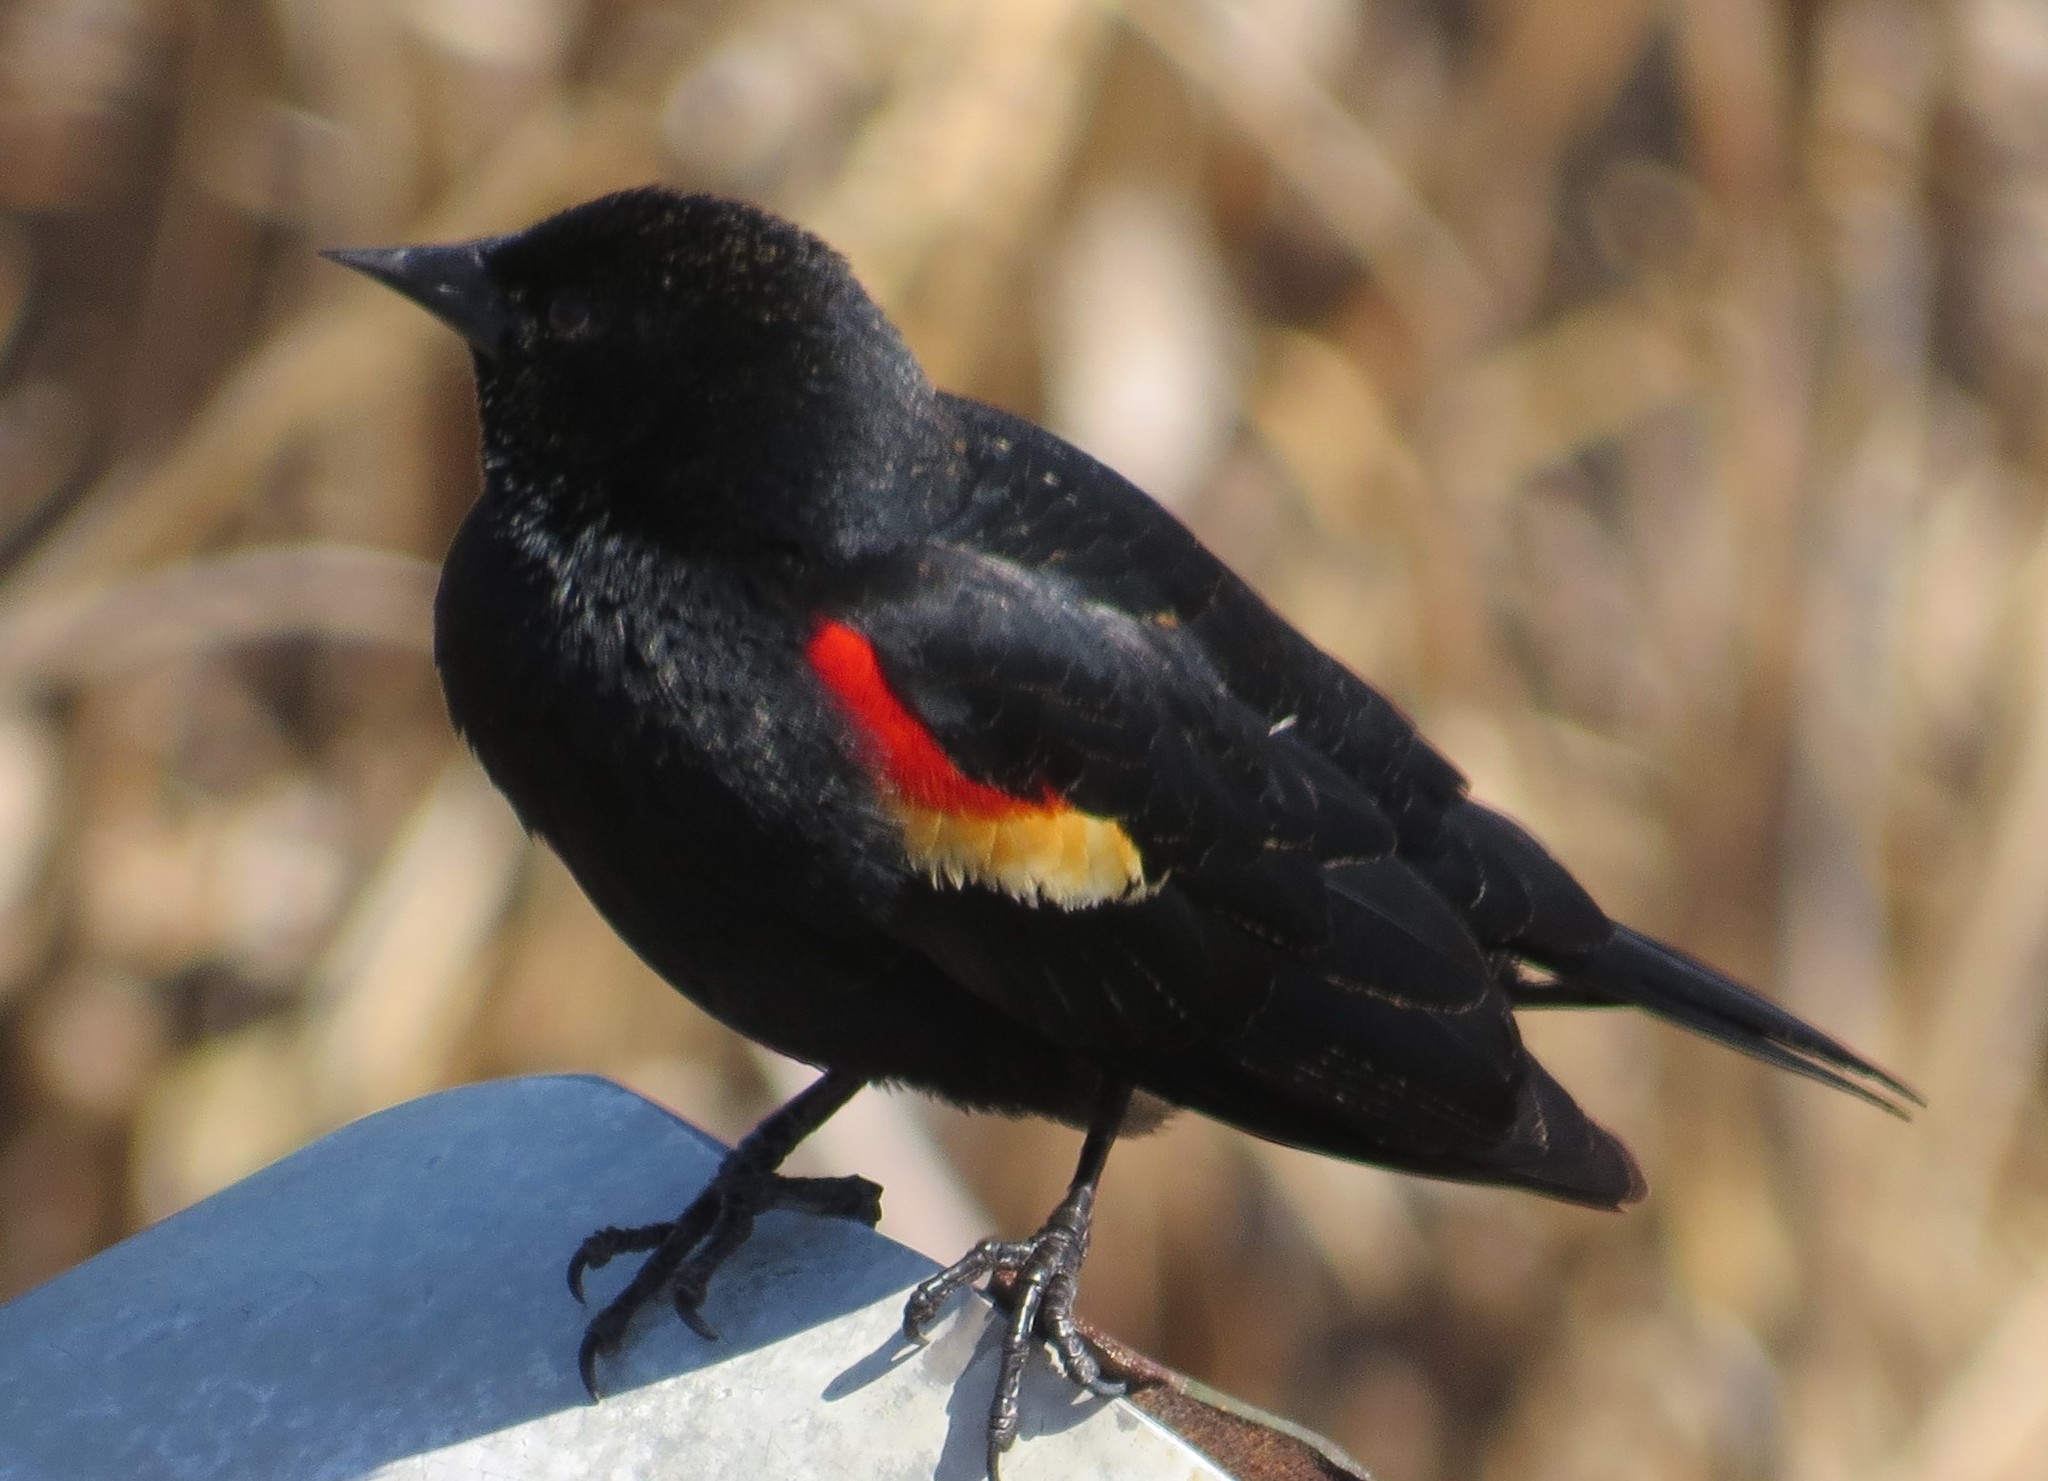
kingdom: Animalia
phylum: Chordata
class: Aves
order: Passeriformes
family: Icteridae
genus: Agelaius
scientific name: Agelaius phoeniceus
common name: Red-winged blackbird
